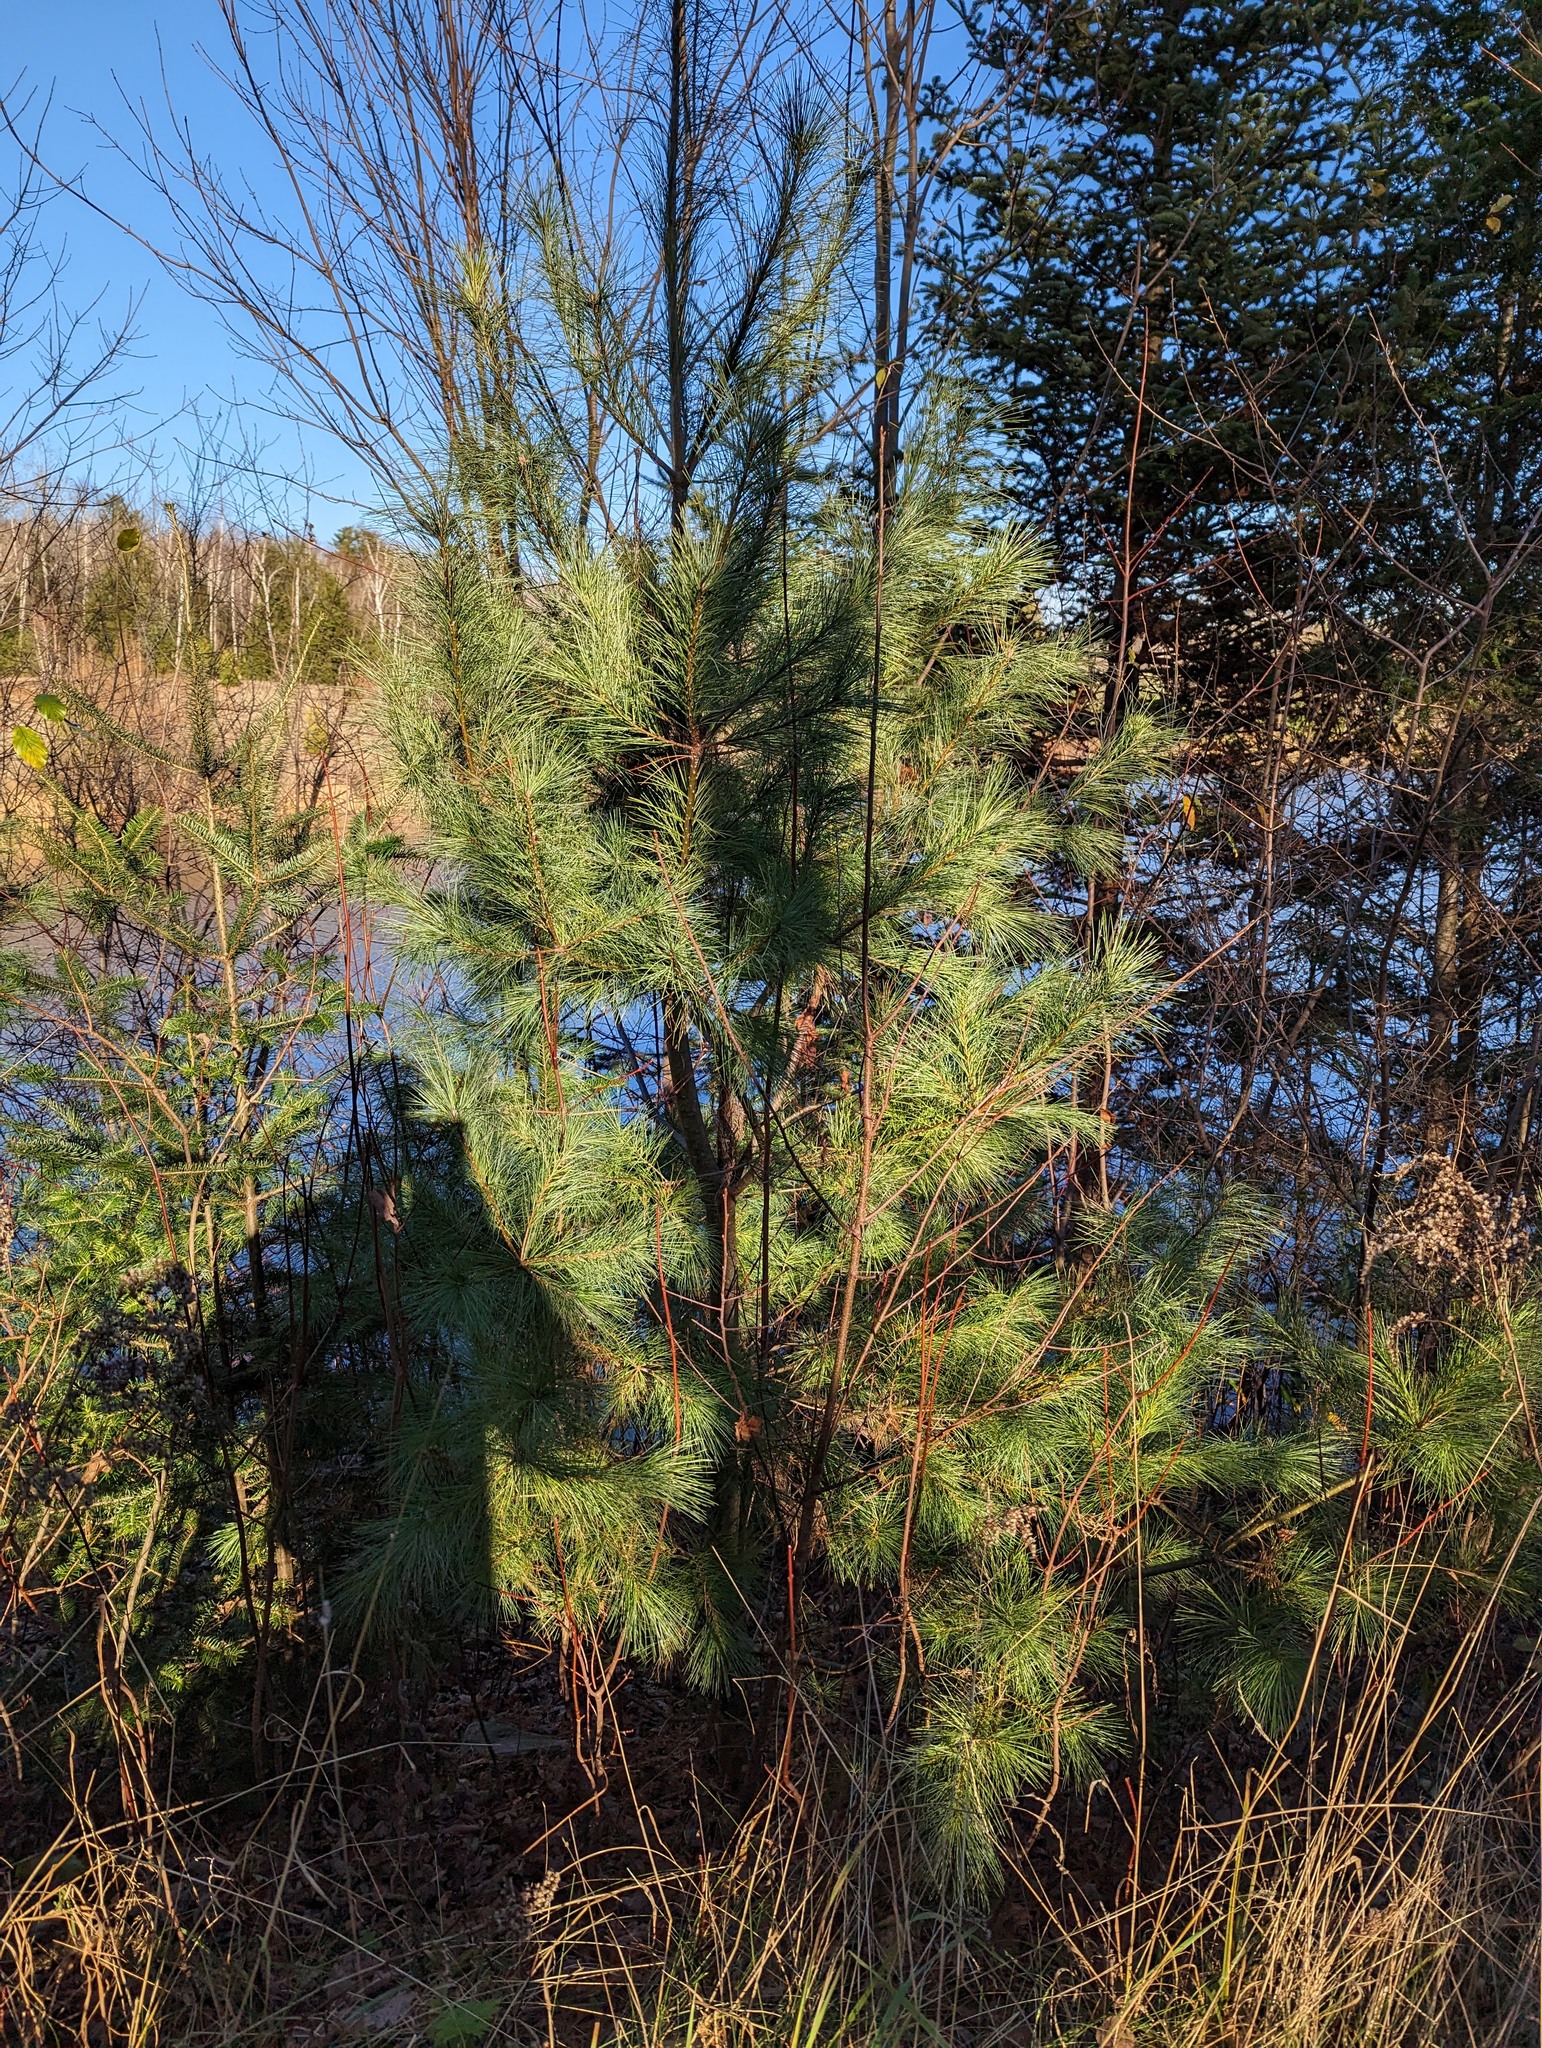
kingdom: Plantae
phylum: Tracheophyta
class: Pinopsida
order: Pinales
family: Pinaceae
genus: Pinus
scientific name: Pinus strobus
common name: Weymouth pine
